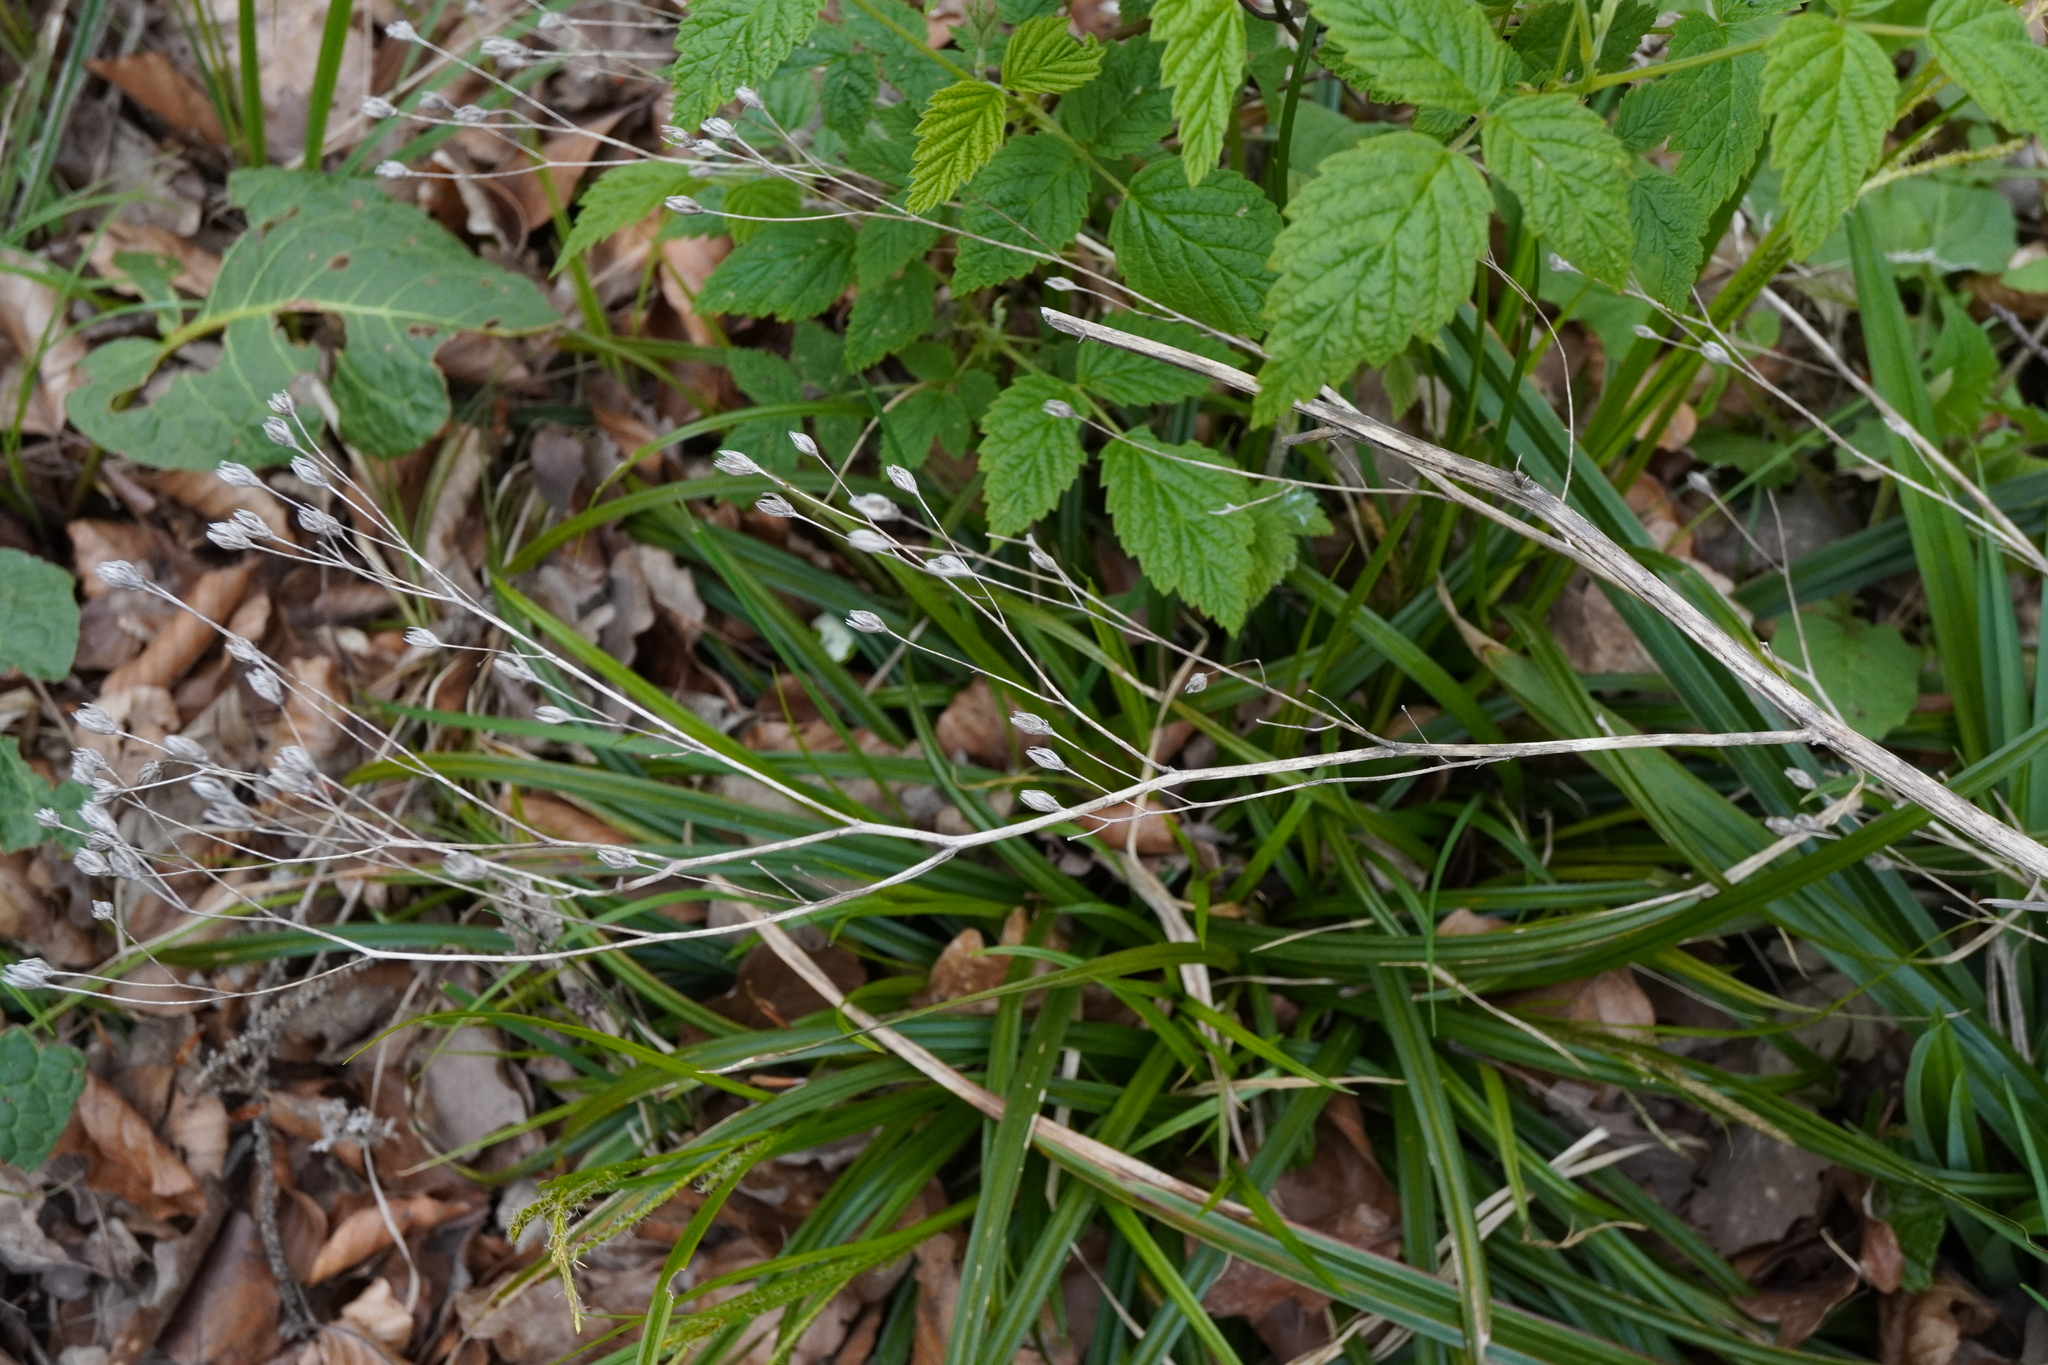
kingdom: Plantae
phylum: Tracheophyta
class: Magnoliopsida
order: Asterales
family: Asteraceae
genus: Lapsana
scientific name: Lapsana communis
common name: Nipplewort
